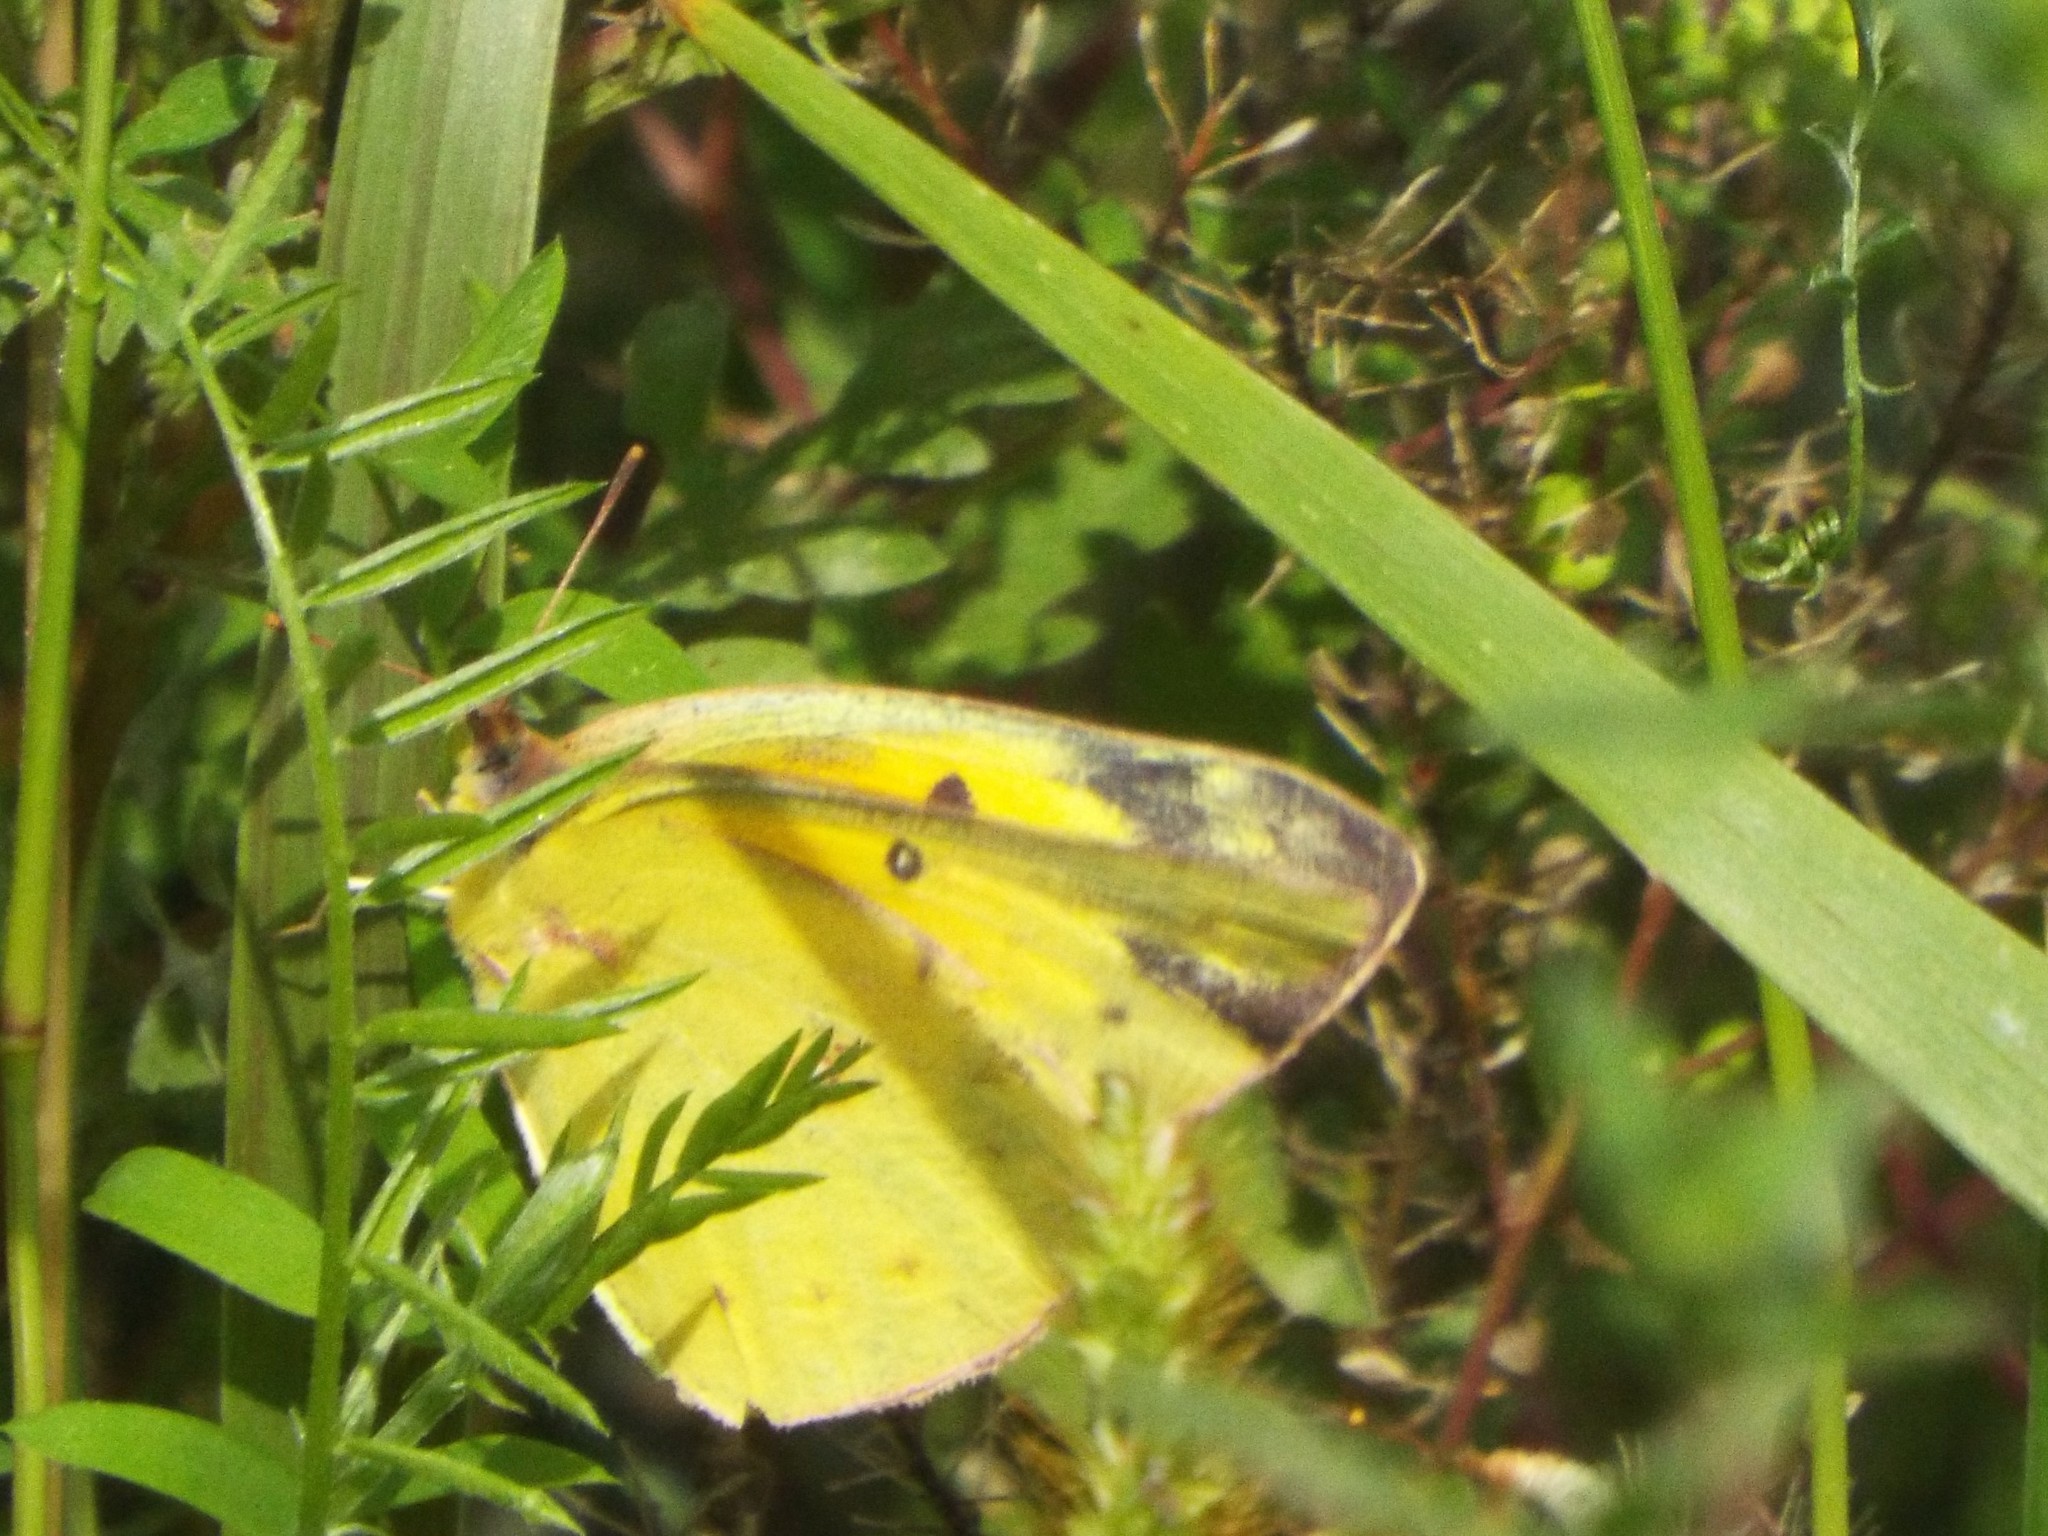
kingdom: Animalia
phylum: Arthropoda
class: Insecta
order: Lepidoptera
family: Pieridae
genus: Colias
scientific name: Colias eurytheme
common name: Alfalfa butterfly
